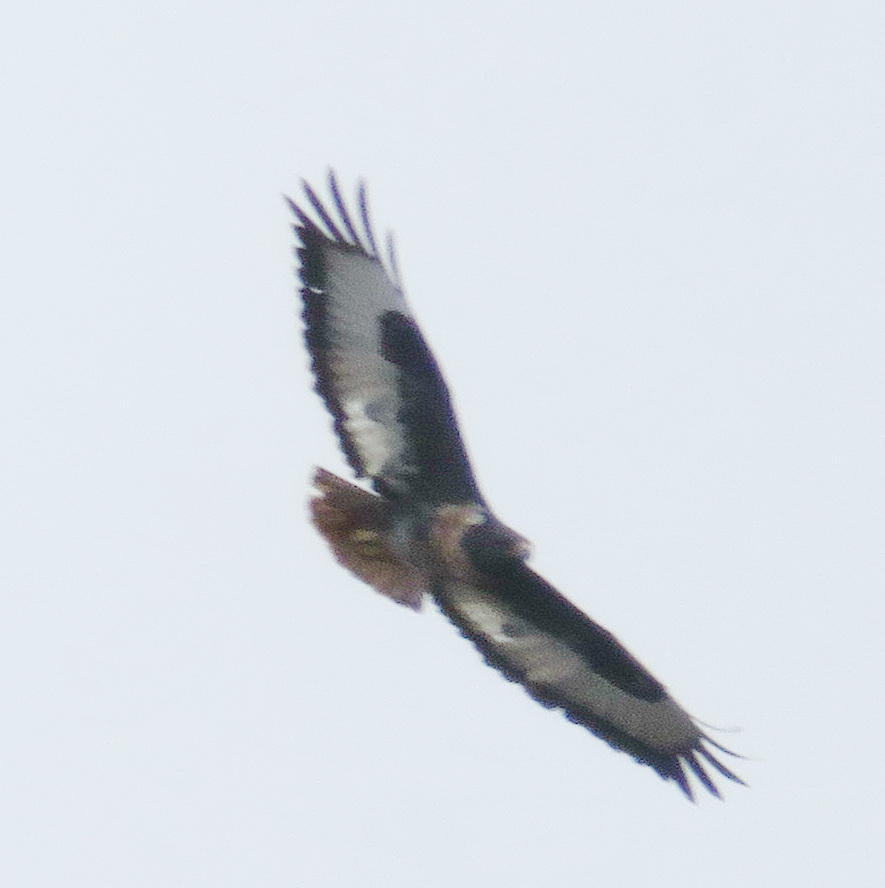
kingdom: Animalia
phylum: Chordata
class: Aves
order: Accipitriformes
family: Accipitridae
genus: Buteo
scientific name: Buteo rufofuscus
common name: Jackal buzzard
